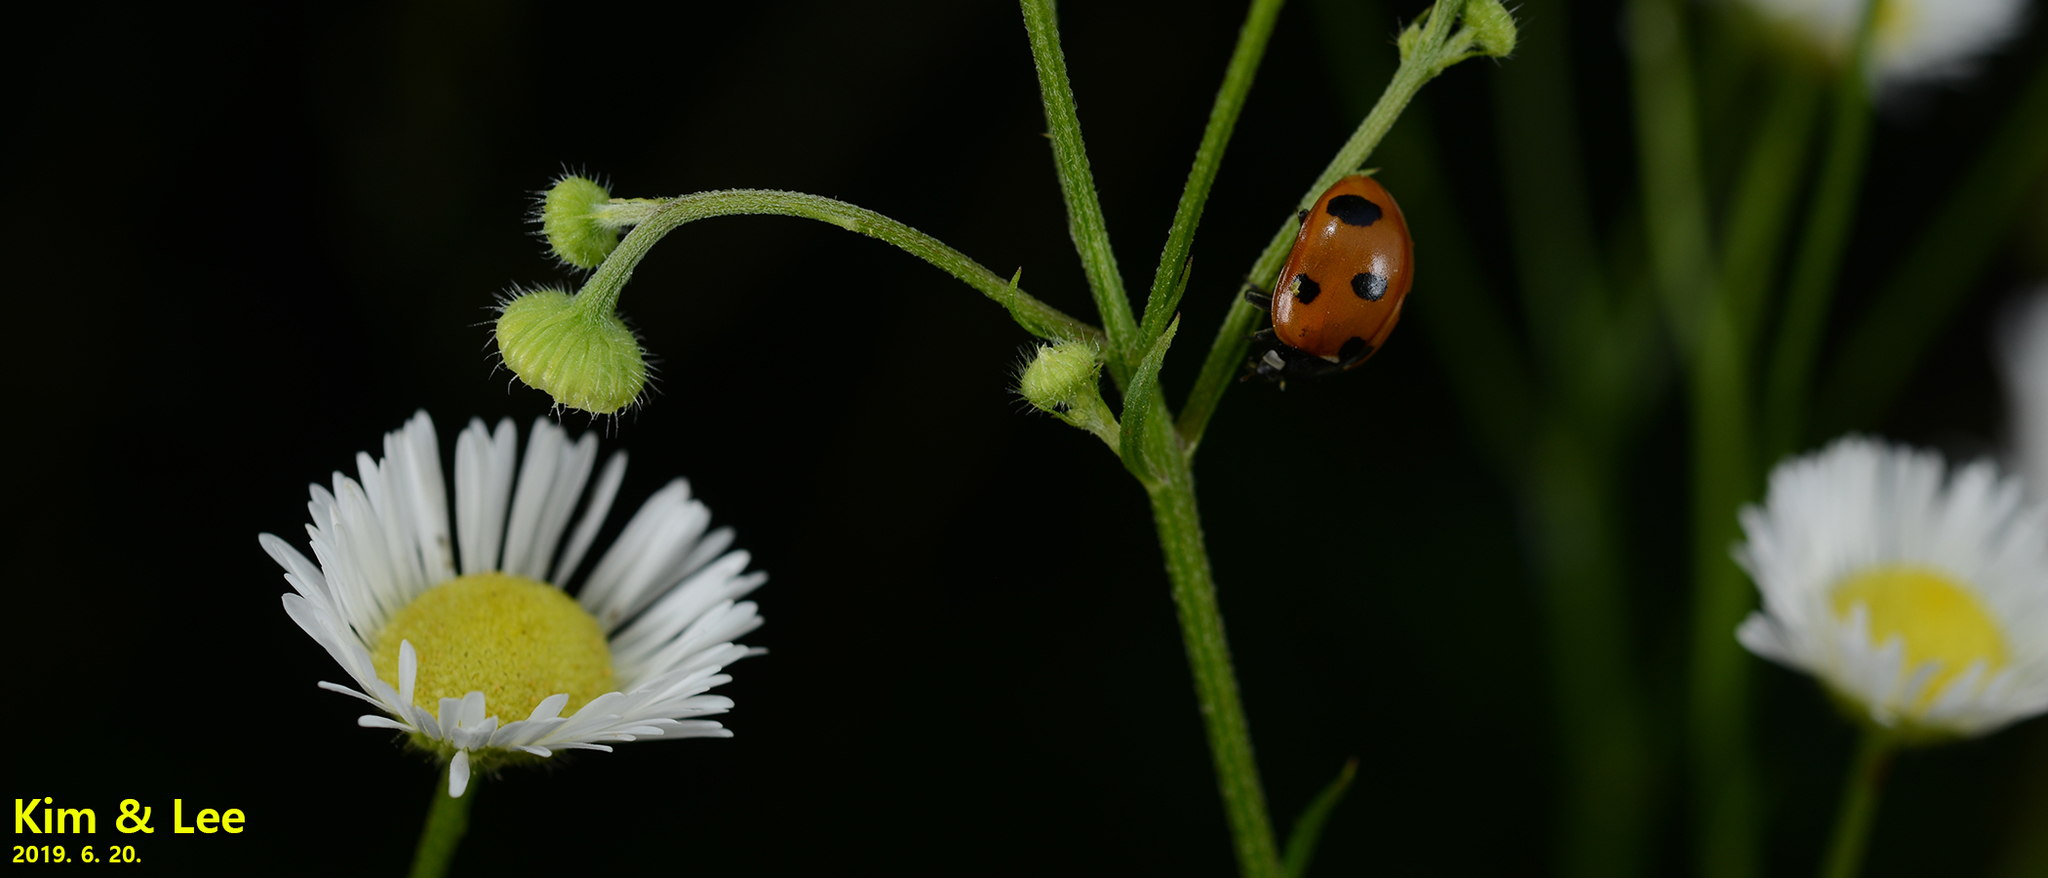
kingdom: Animalia
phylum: Arthropoda
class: Insecta
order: Coleoptera
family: Coccinellidae
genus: Coccinella
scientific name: Coccinella septempunctata
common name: Sevenspotted lady beetle
